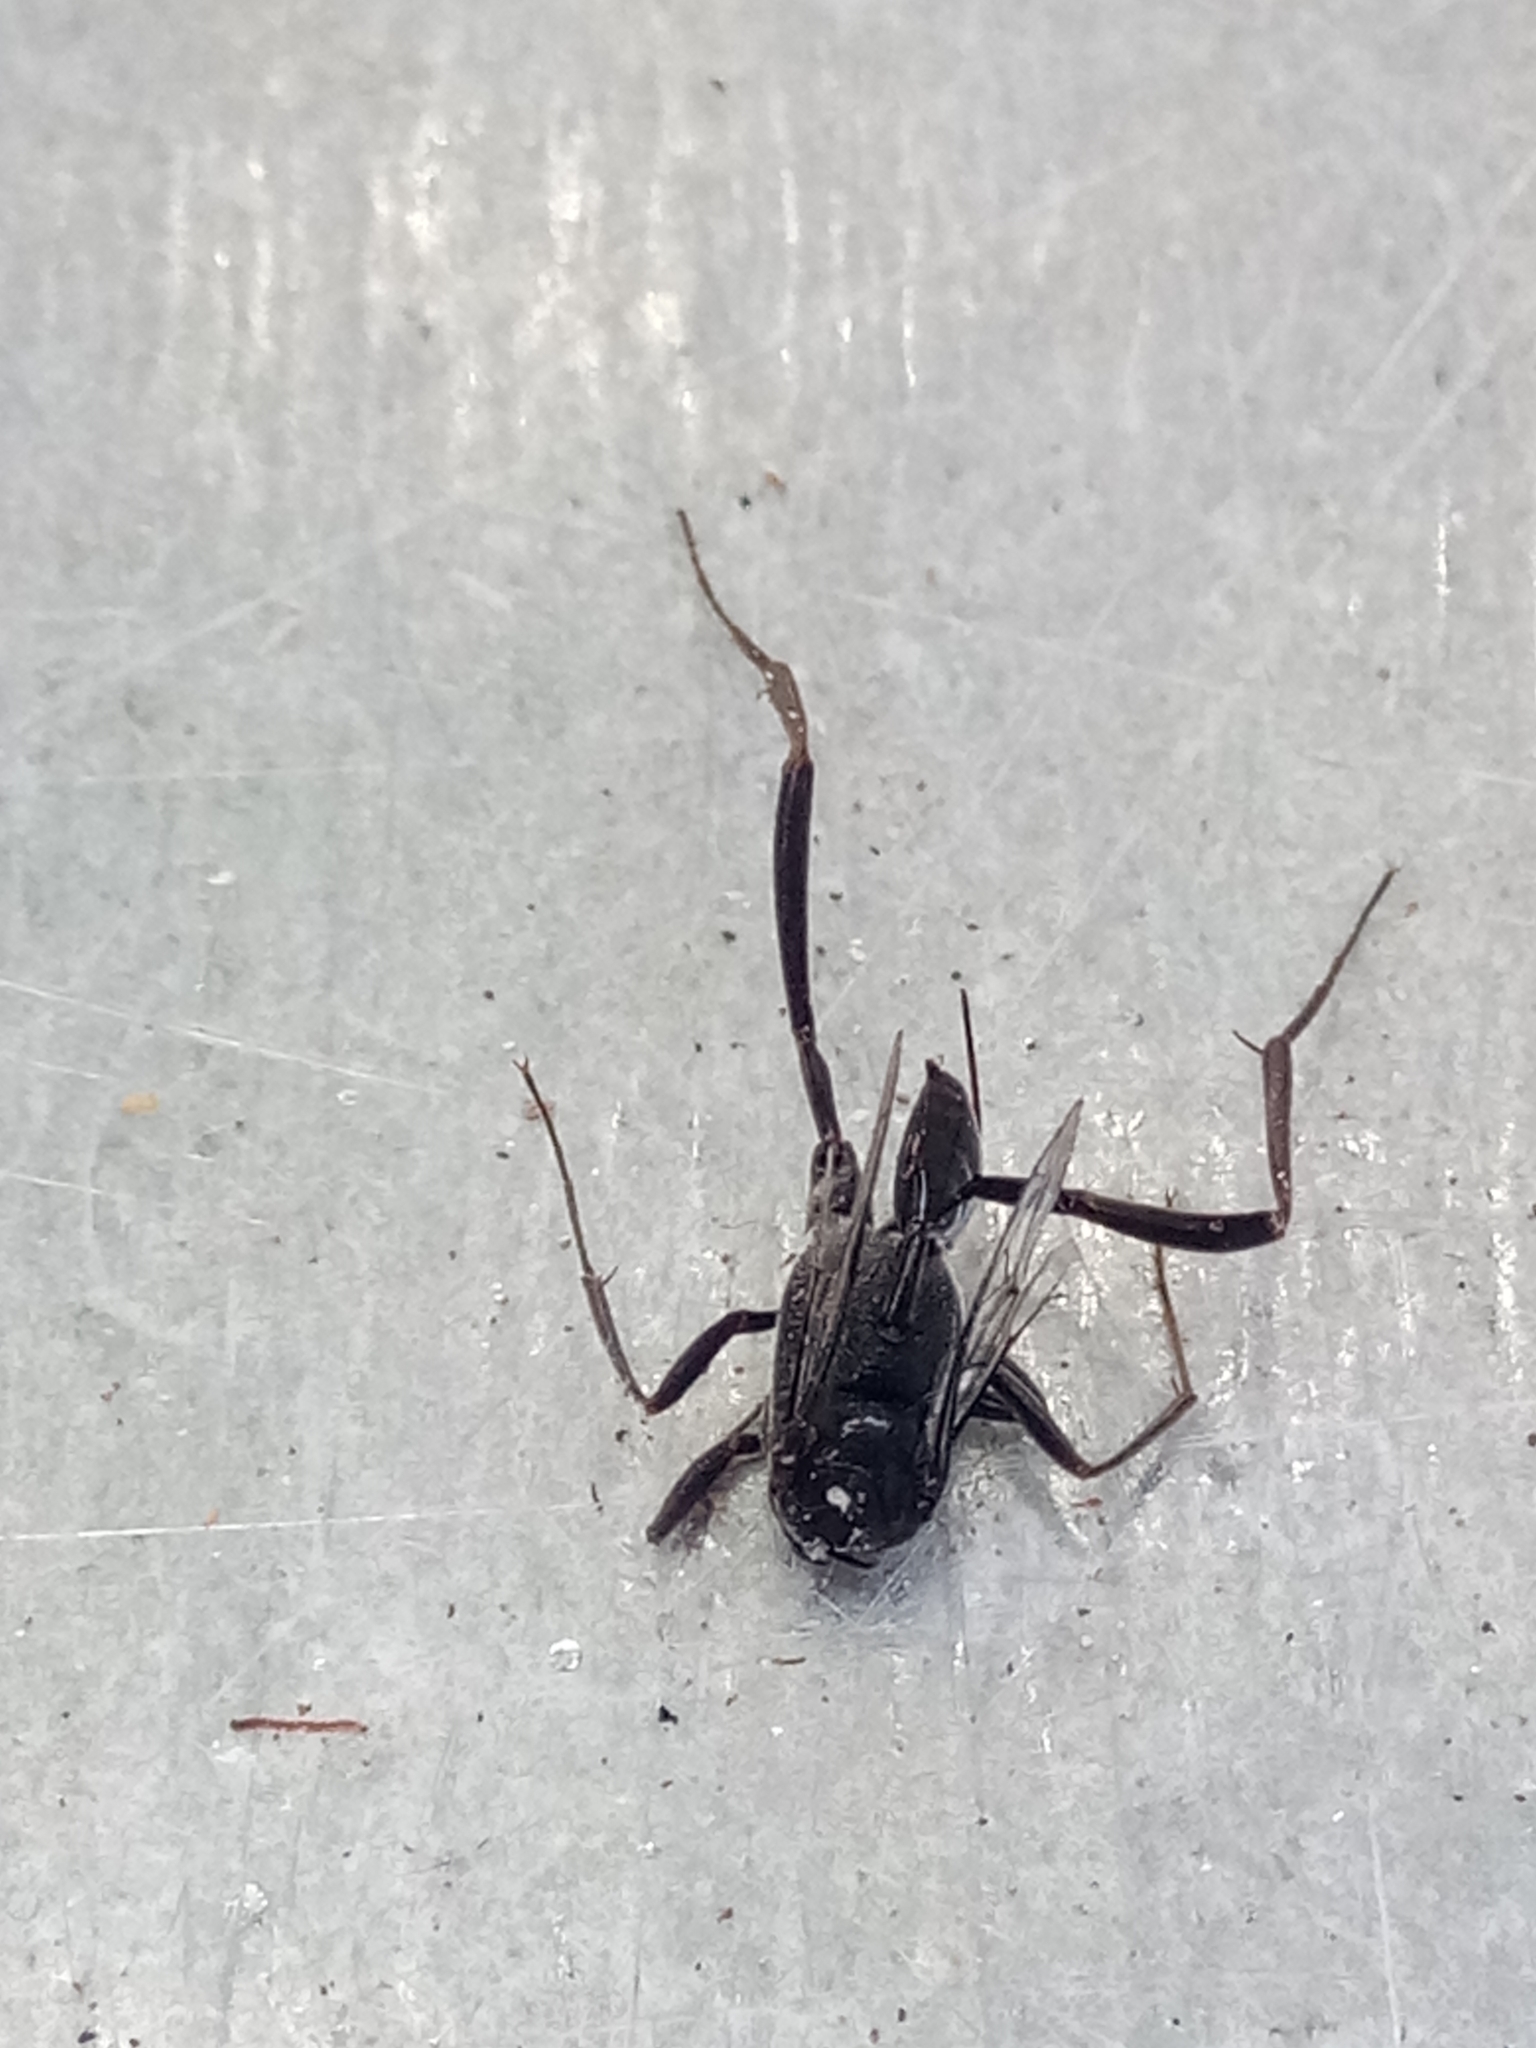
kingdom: Animalia
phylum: Arthropoda
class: Insecta
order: Hymenoptera
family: Evaniidae
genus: Evania
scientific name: Evania appendigaster
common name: Ensign wasp
